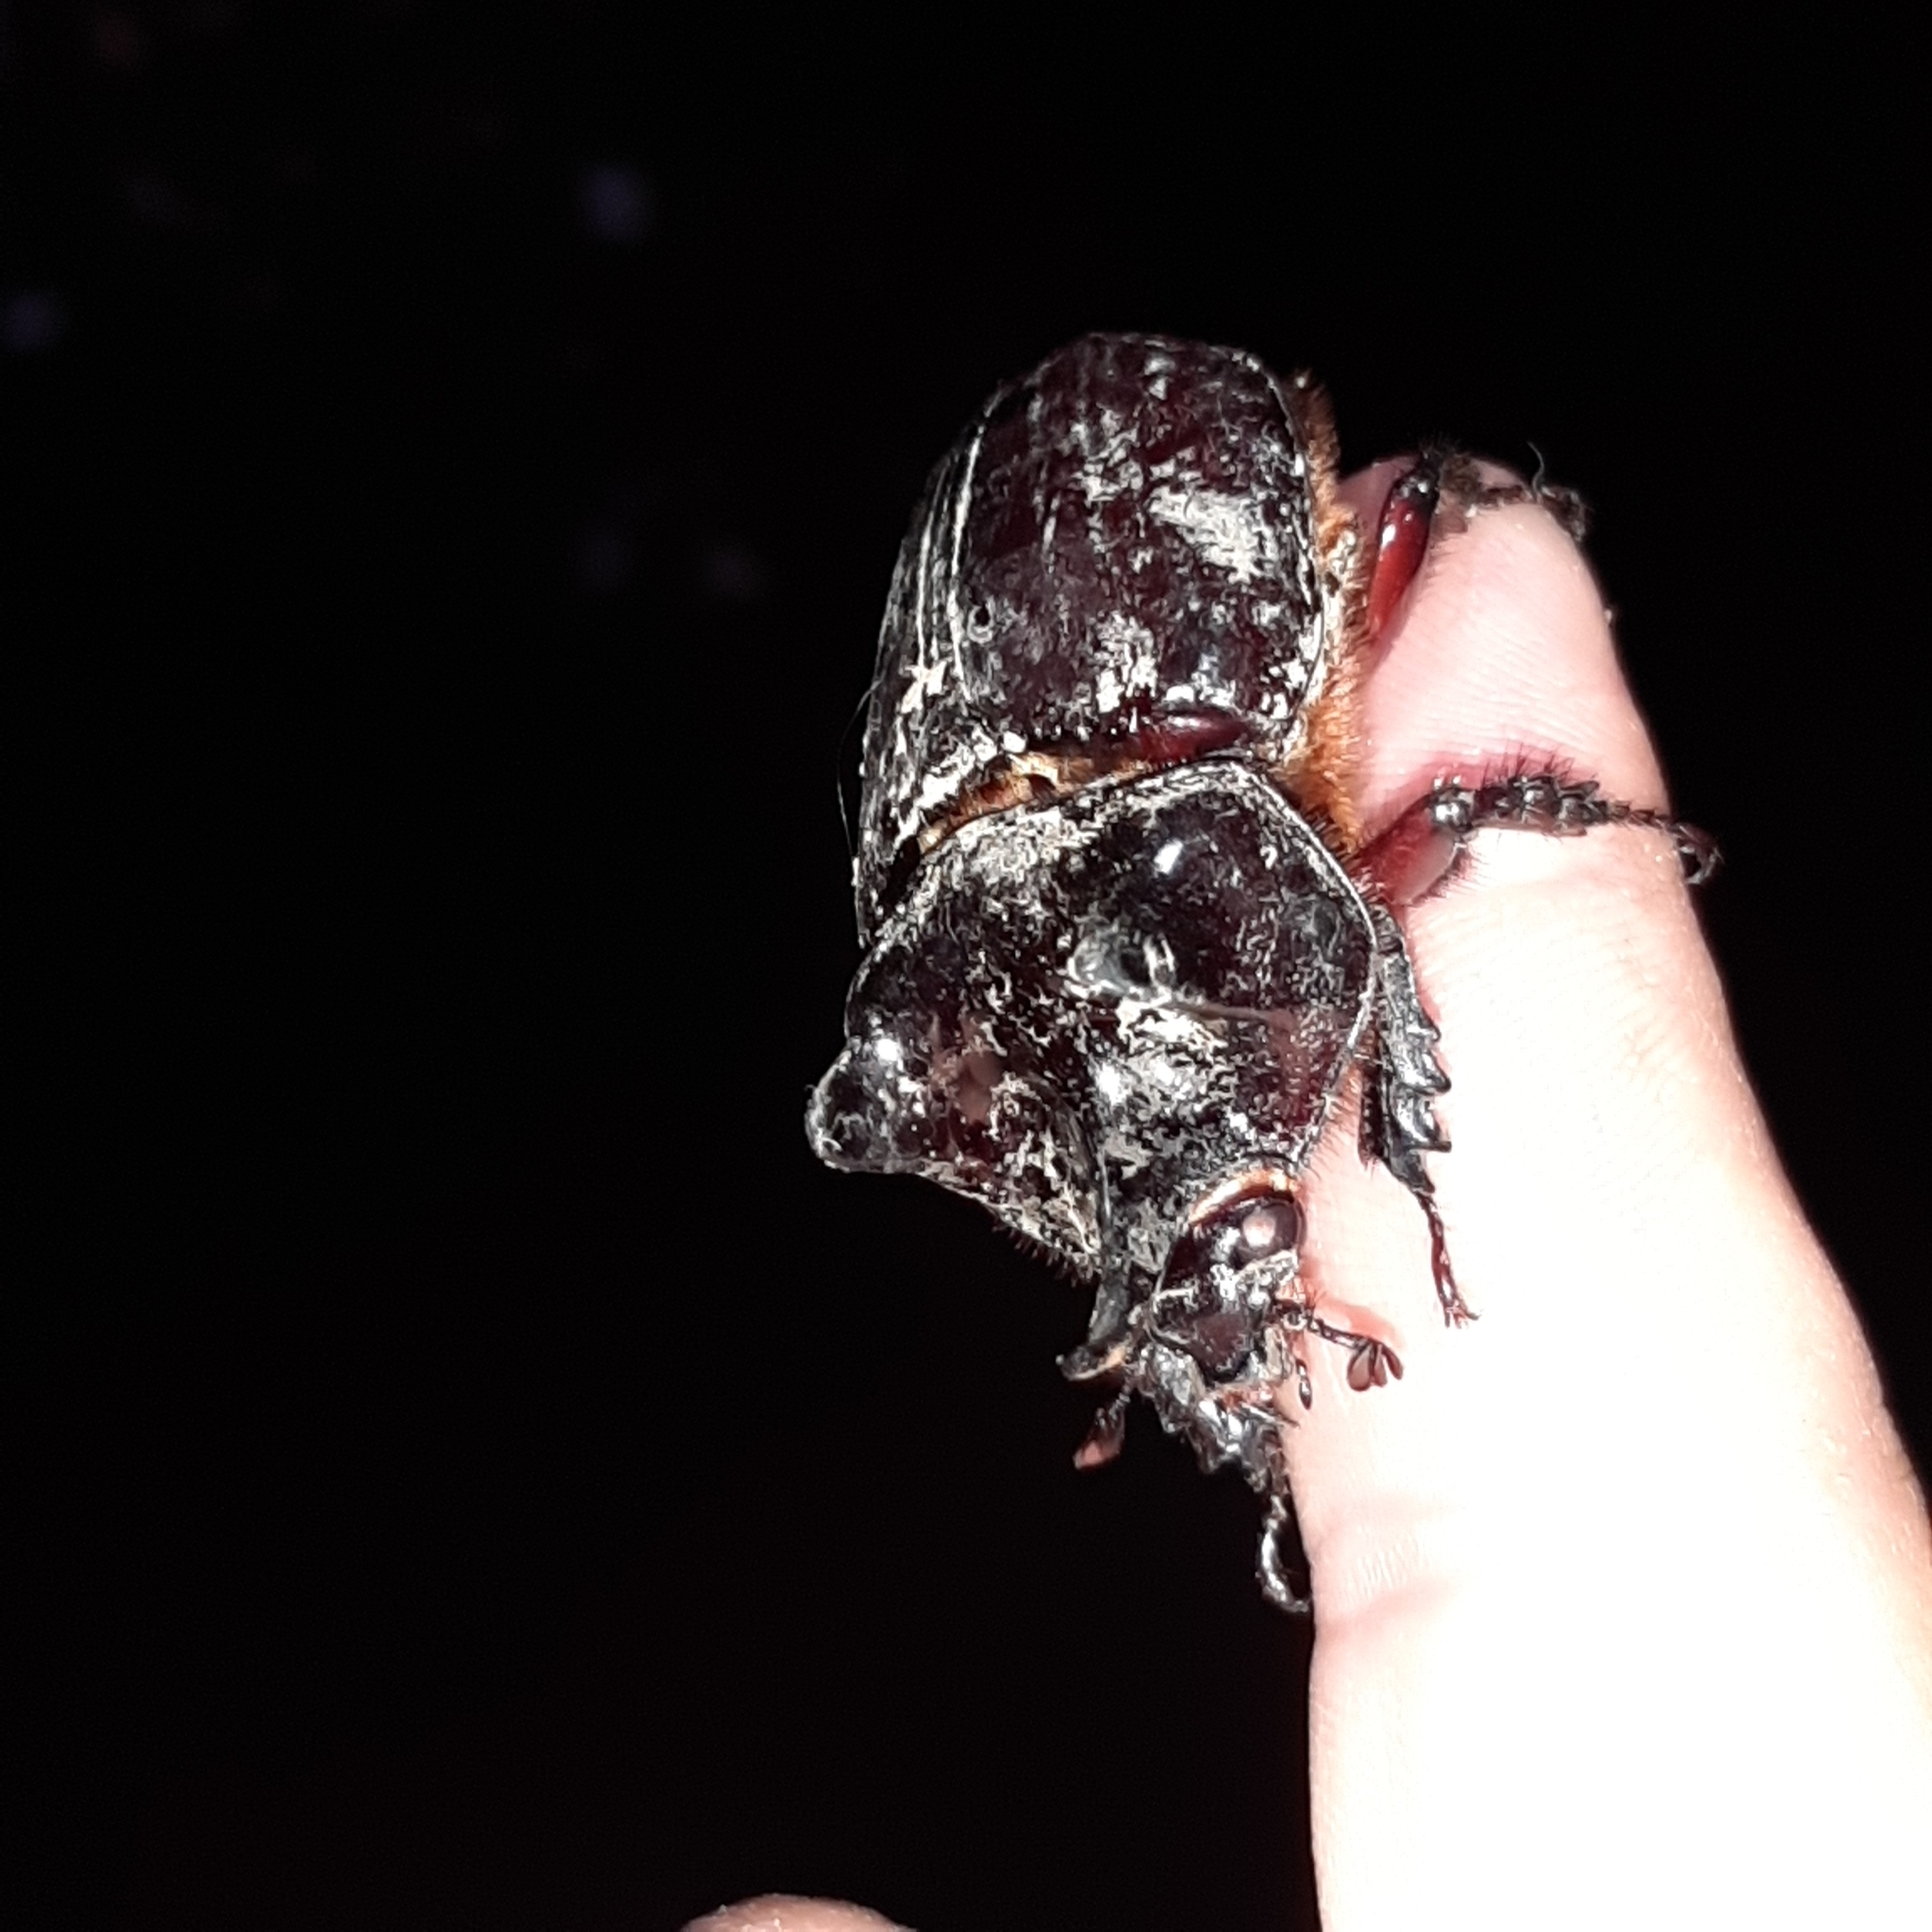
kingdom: Animalia
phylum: Arthropoda
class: Insecta
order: Coleoptera
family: Scarabaeidae
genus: Strategus
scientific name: Strategus aloeus
